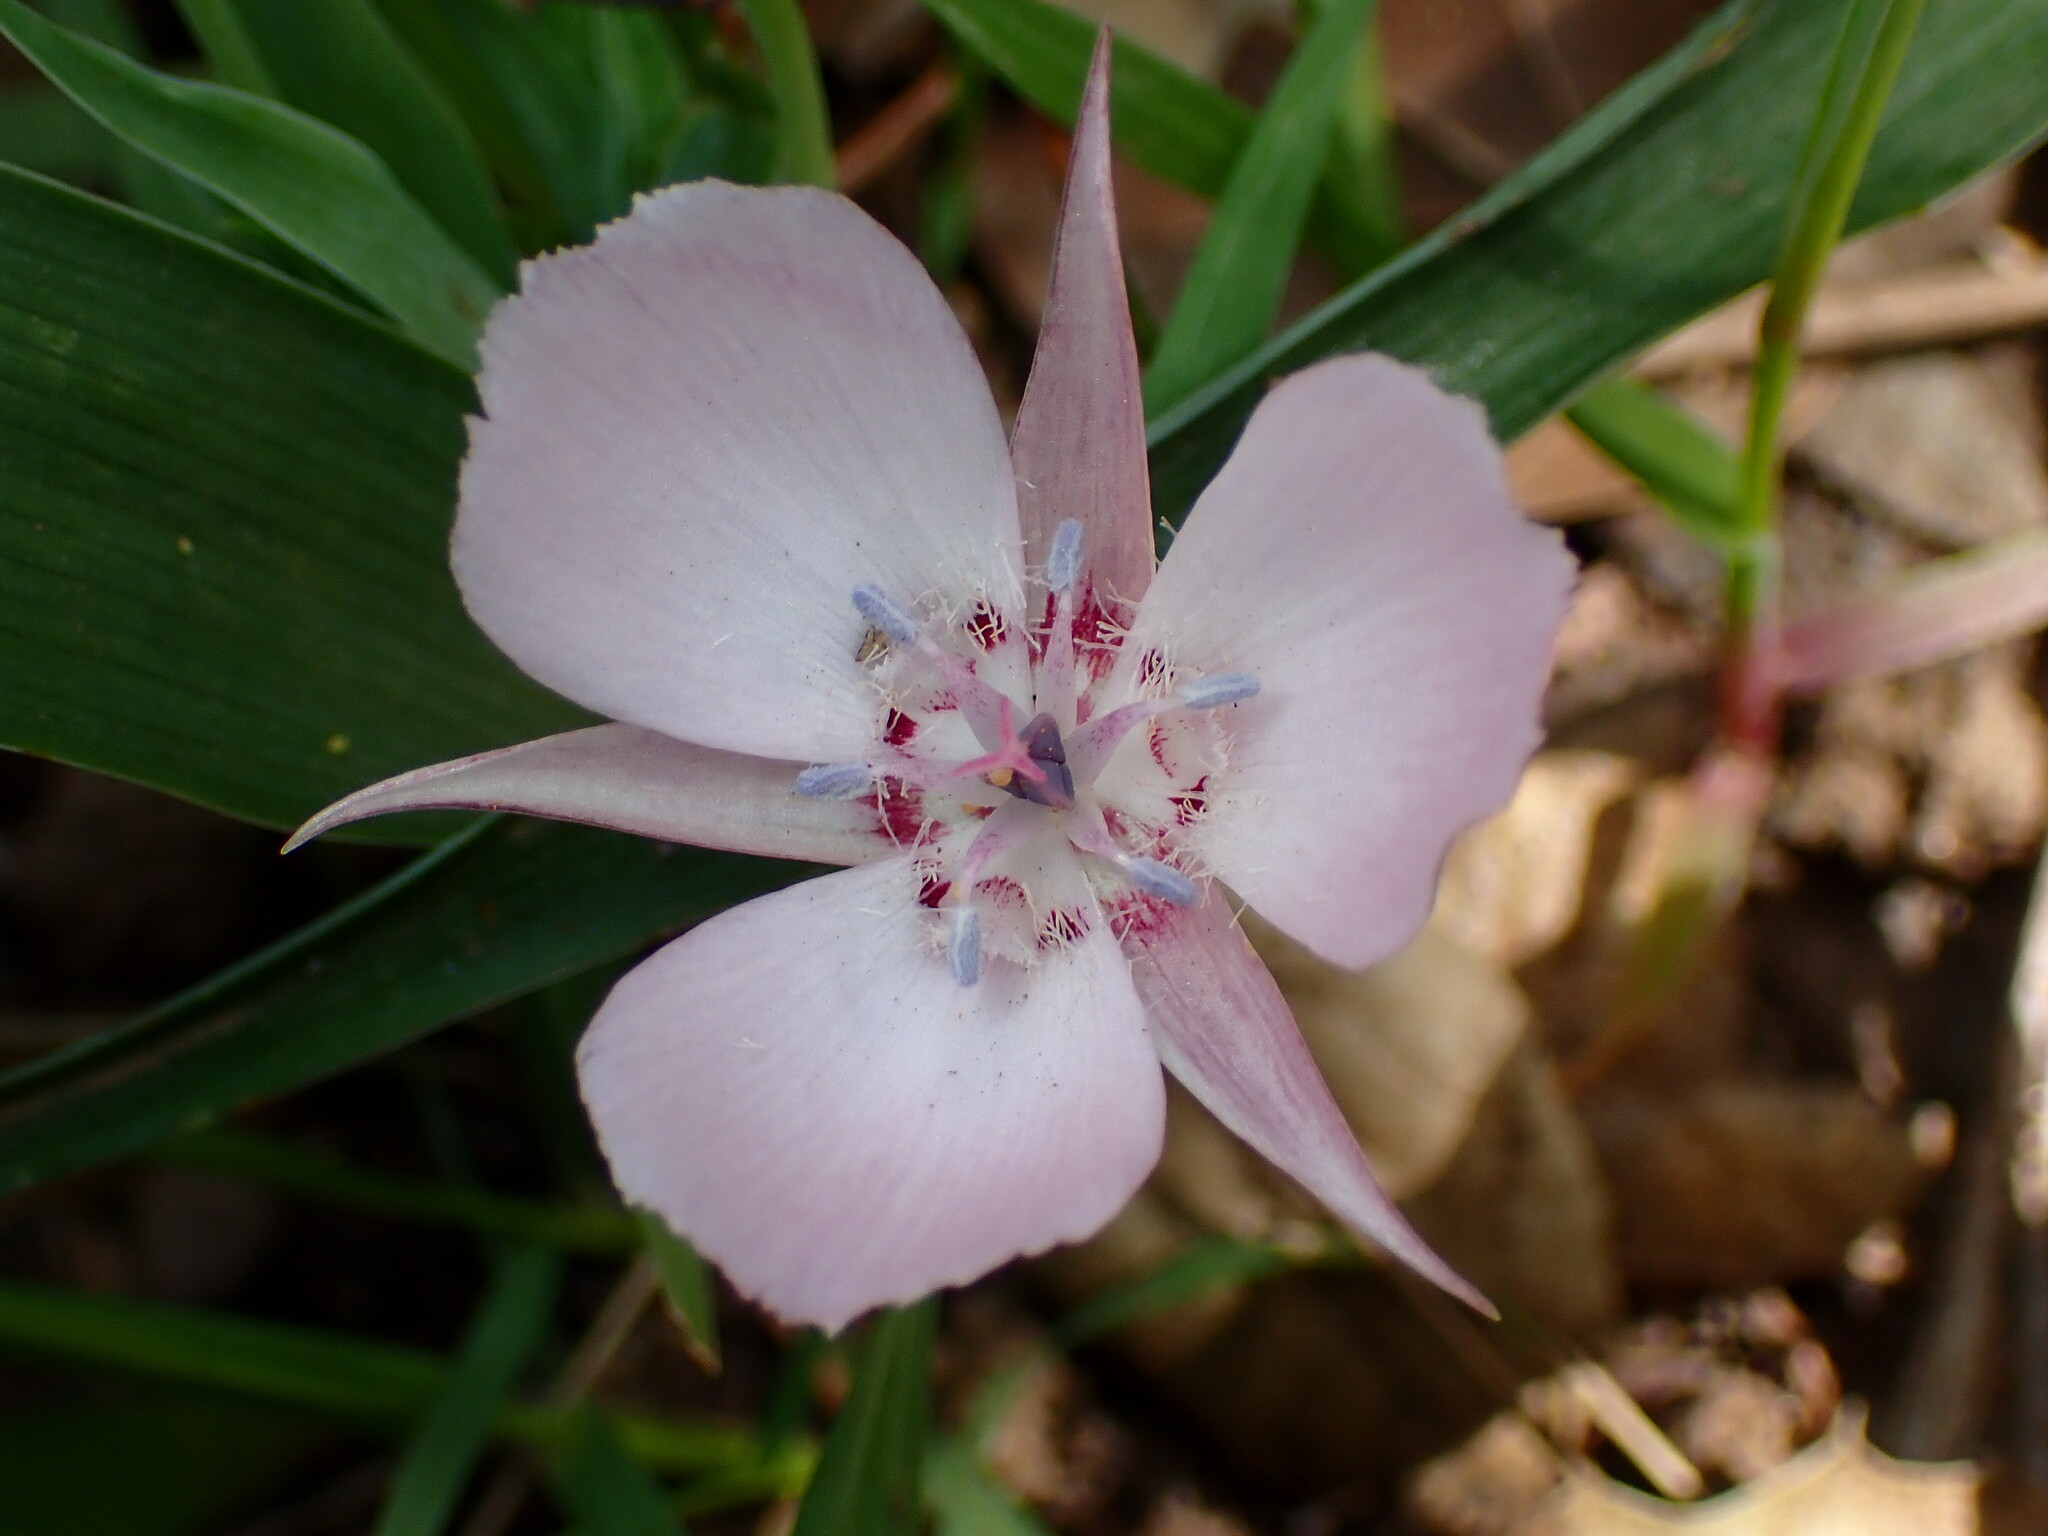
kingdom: Plantae
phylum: Tracheophyta
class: Liliopsida
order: Liliales
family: Liliaceae
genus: Calochortus
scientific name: Calochortus umbellatus
